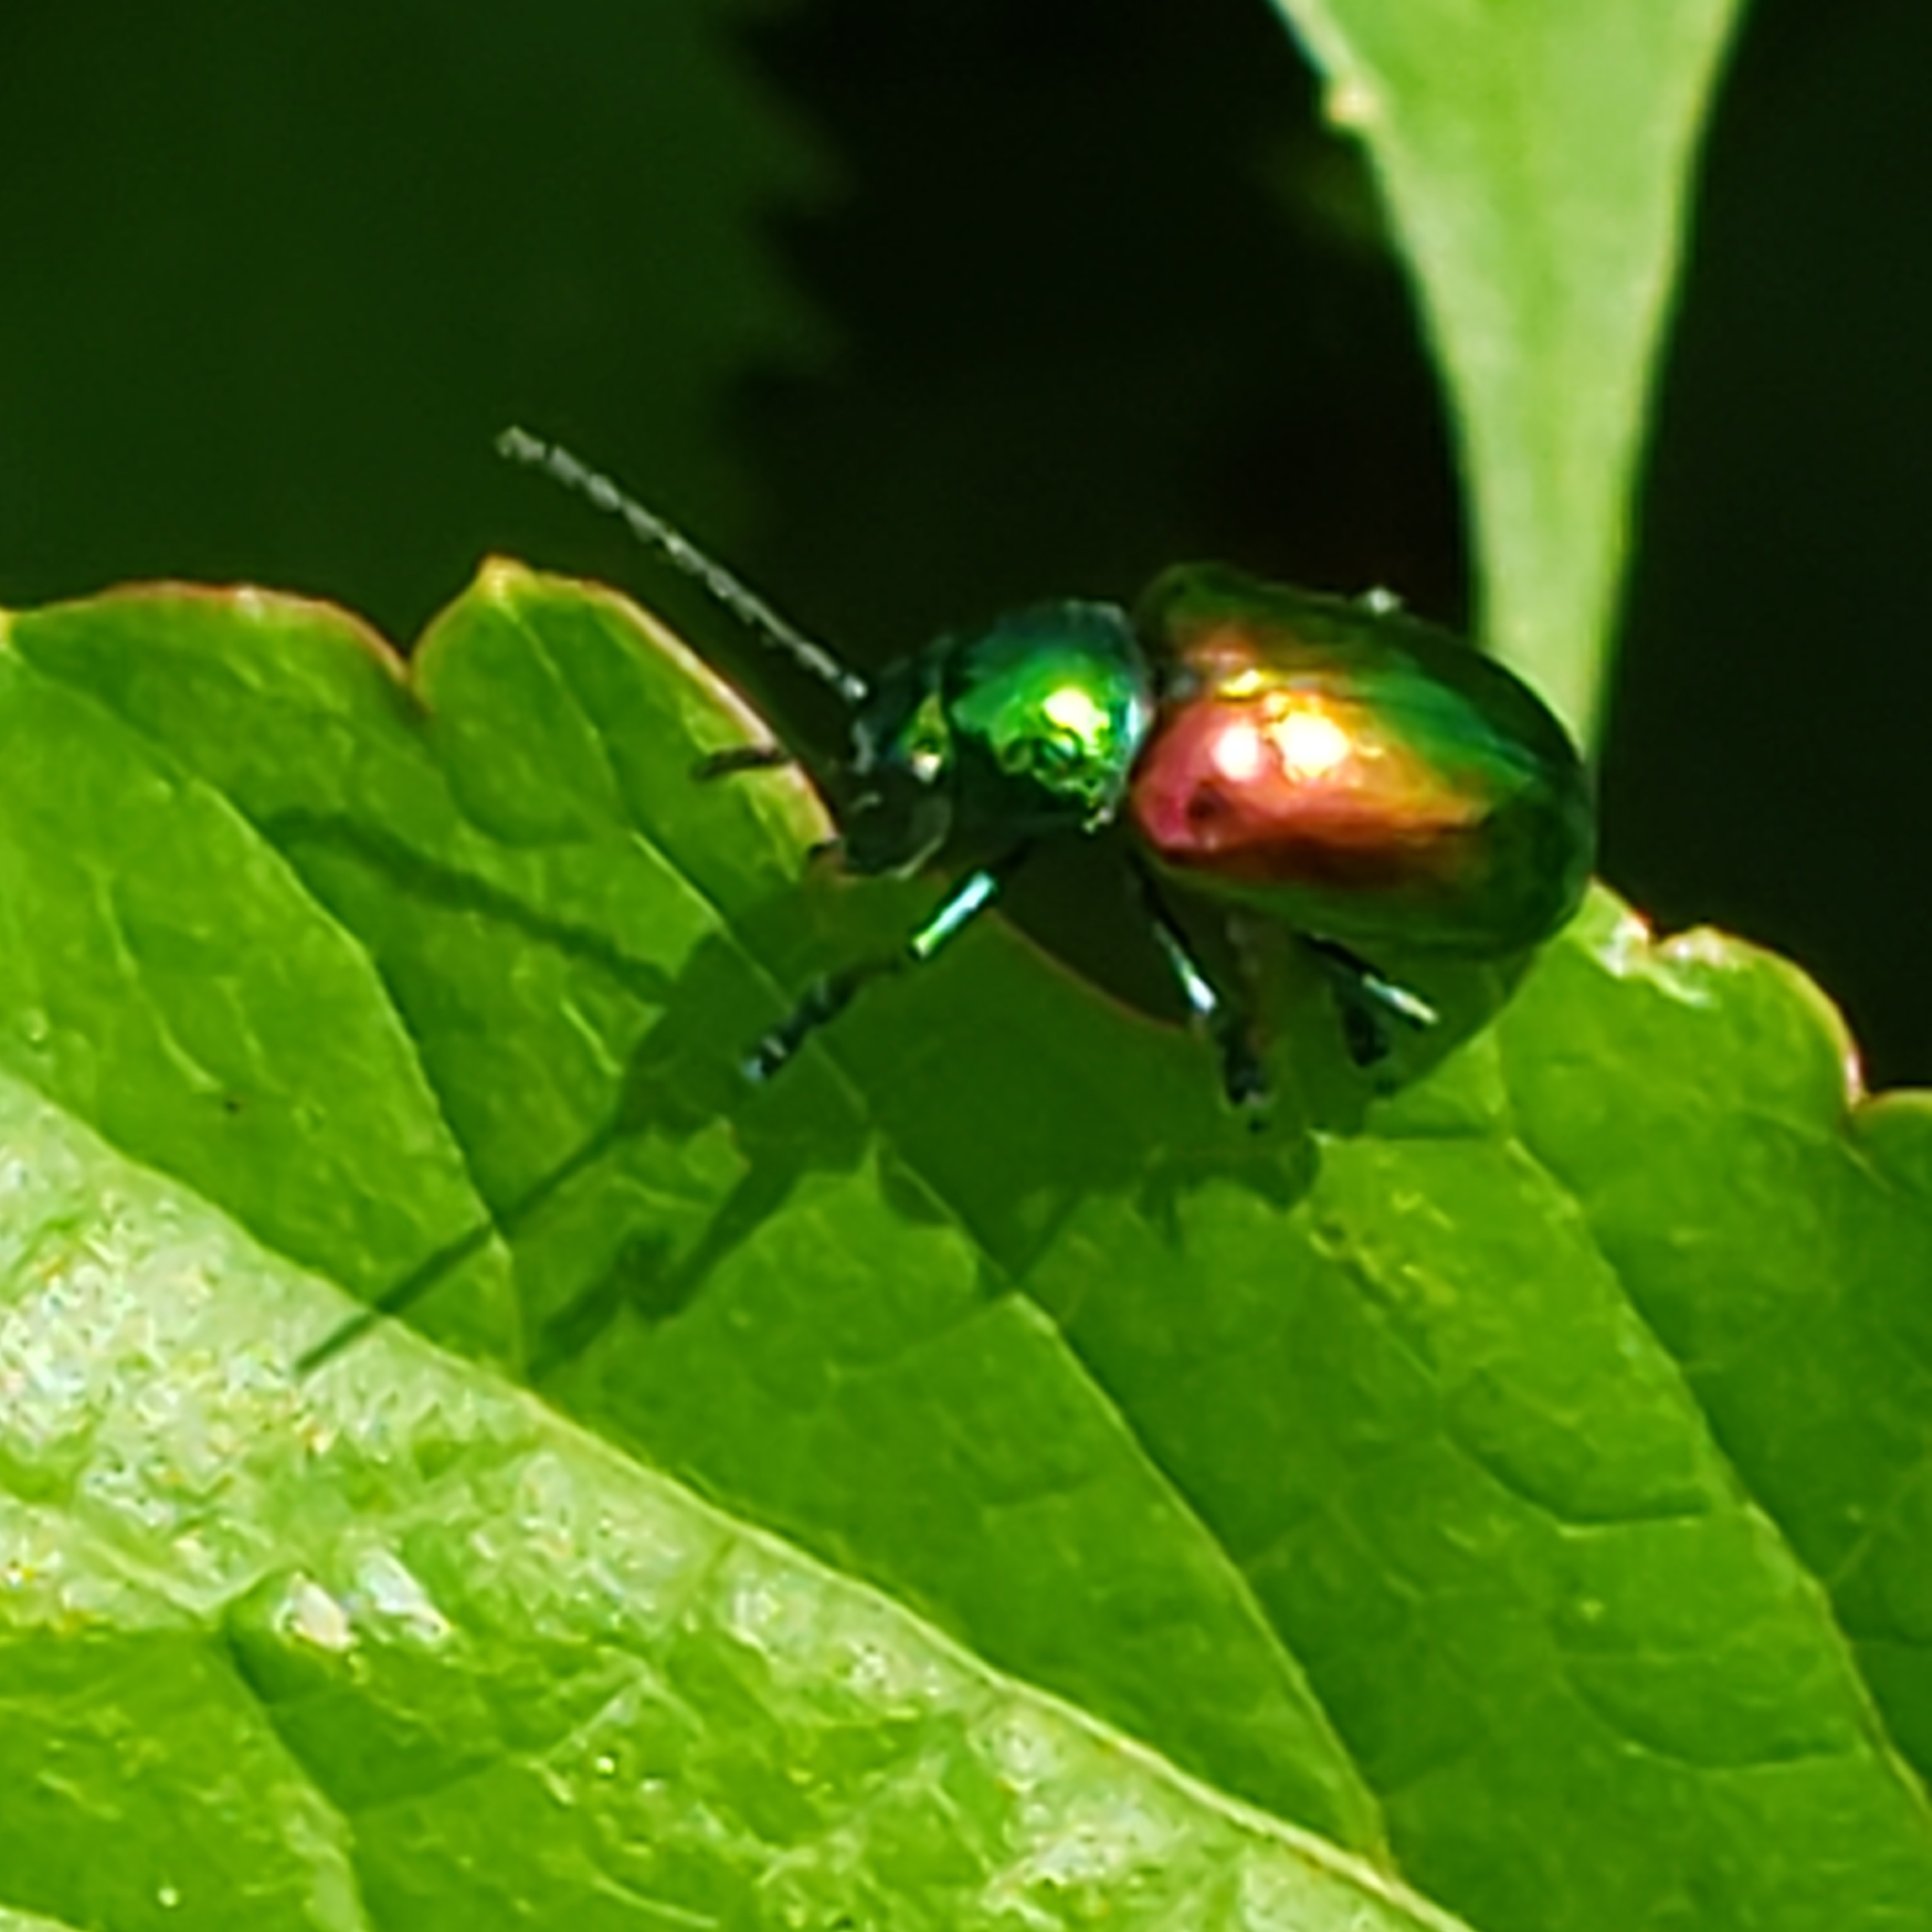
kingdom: Animalia
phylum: Arthropoda
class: Insecta
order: Coleoptera
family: Chrysomelidae
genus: Chrysochus
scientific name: Chrysochus auratus
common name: Dogbane leaf beetle
